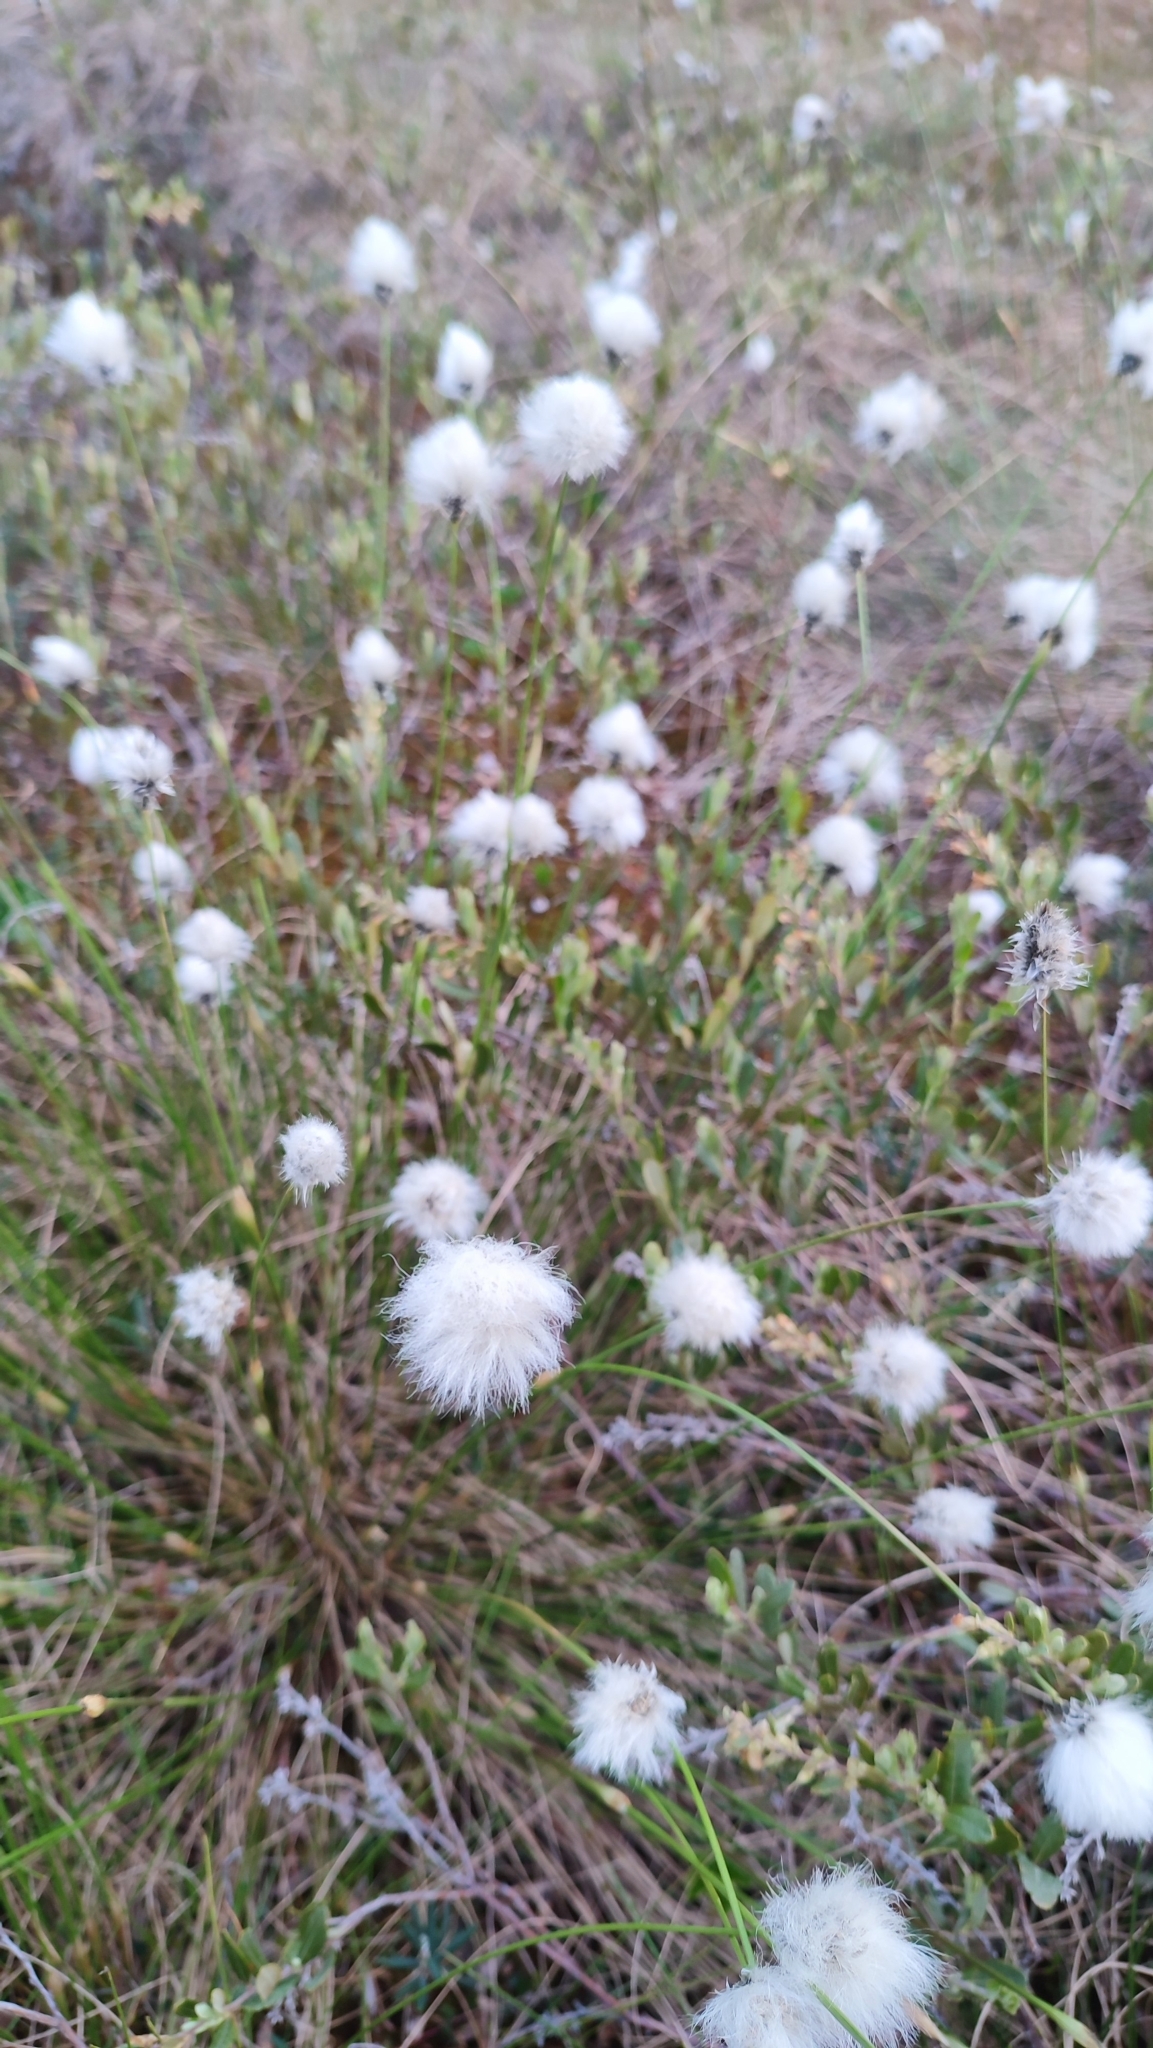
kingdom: Plantae
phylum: Tracheophyta
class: Liliopsida
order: Poales
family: Cyperaceae
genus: Eriophorum
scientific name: Eriophorum vaginatum
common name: Hare's-tail cottongrass
